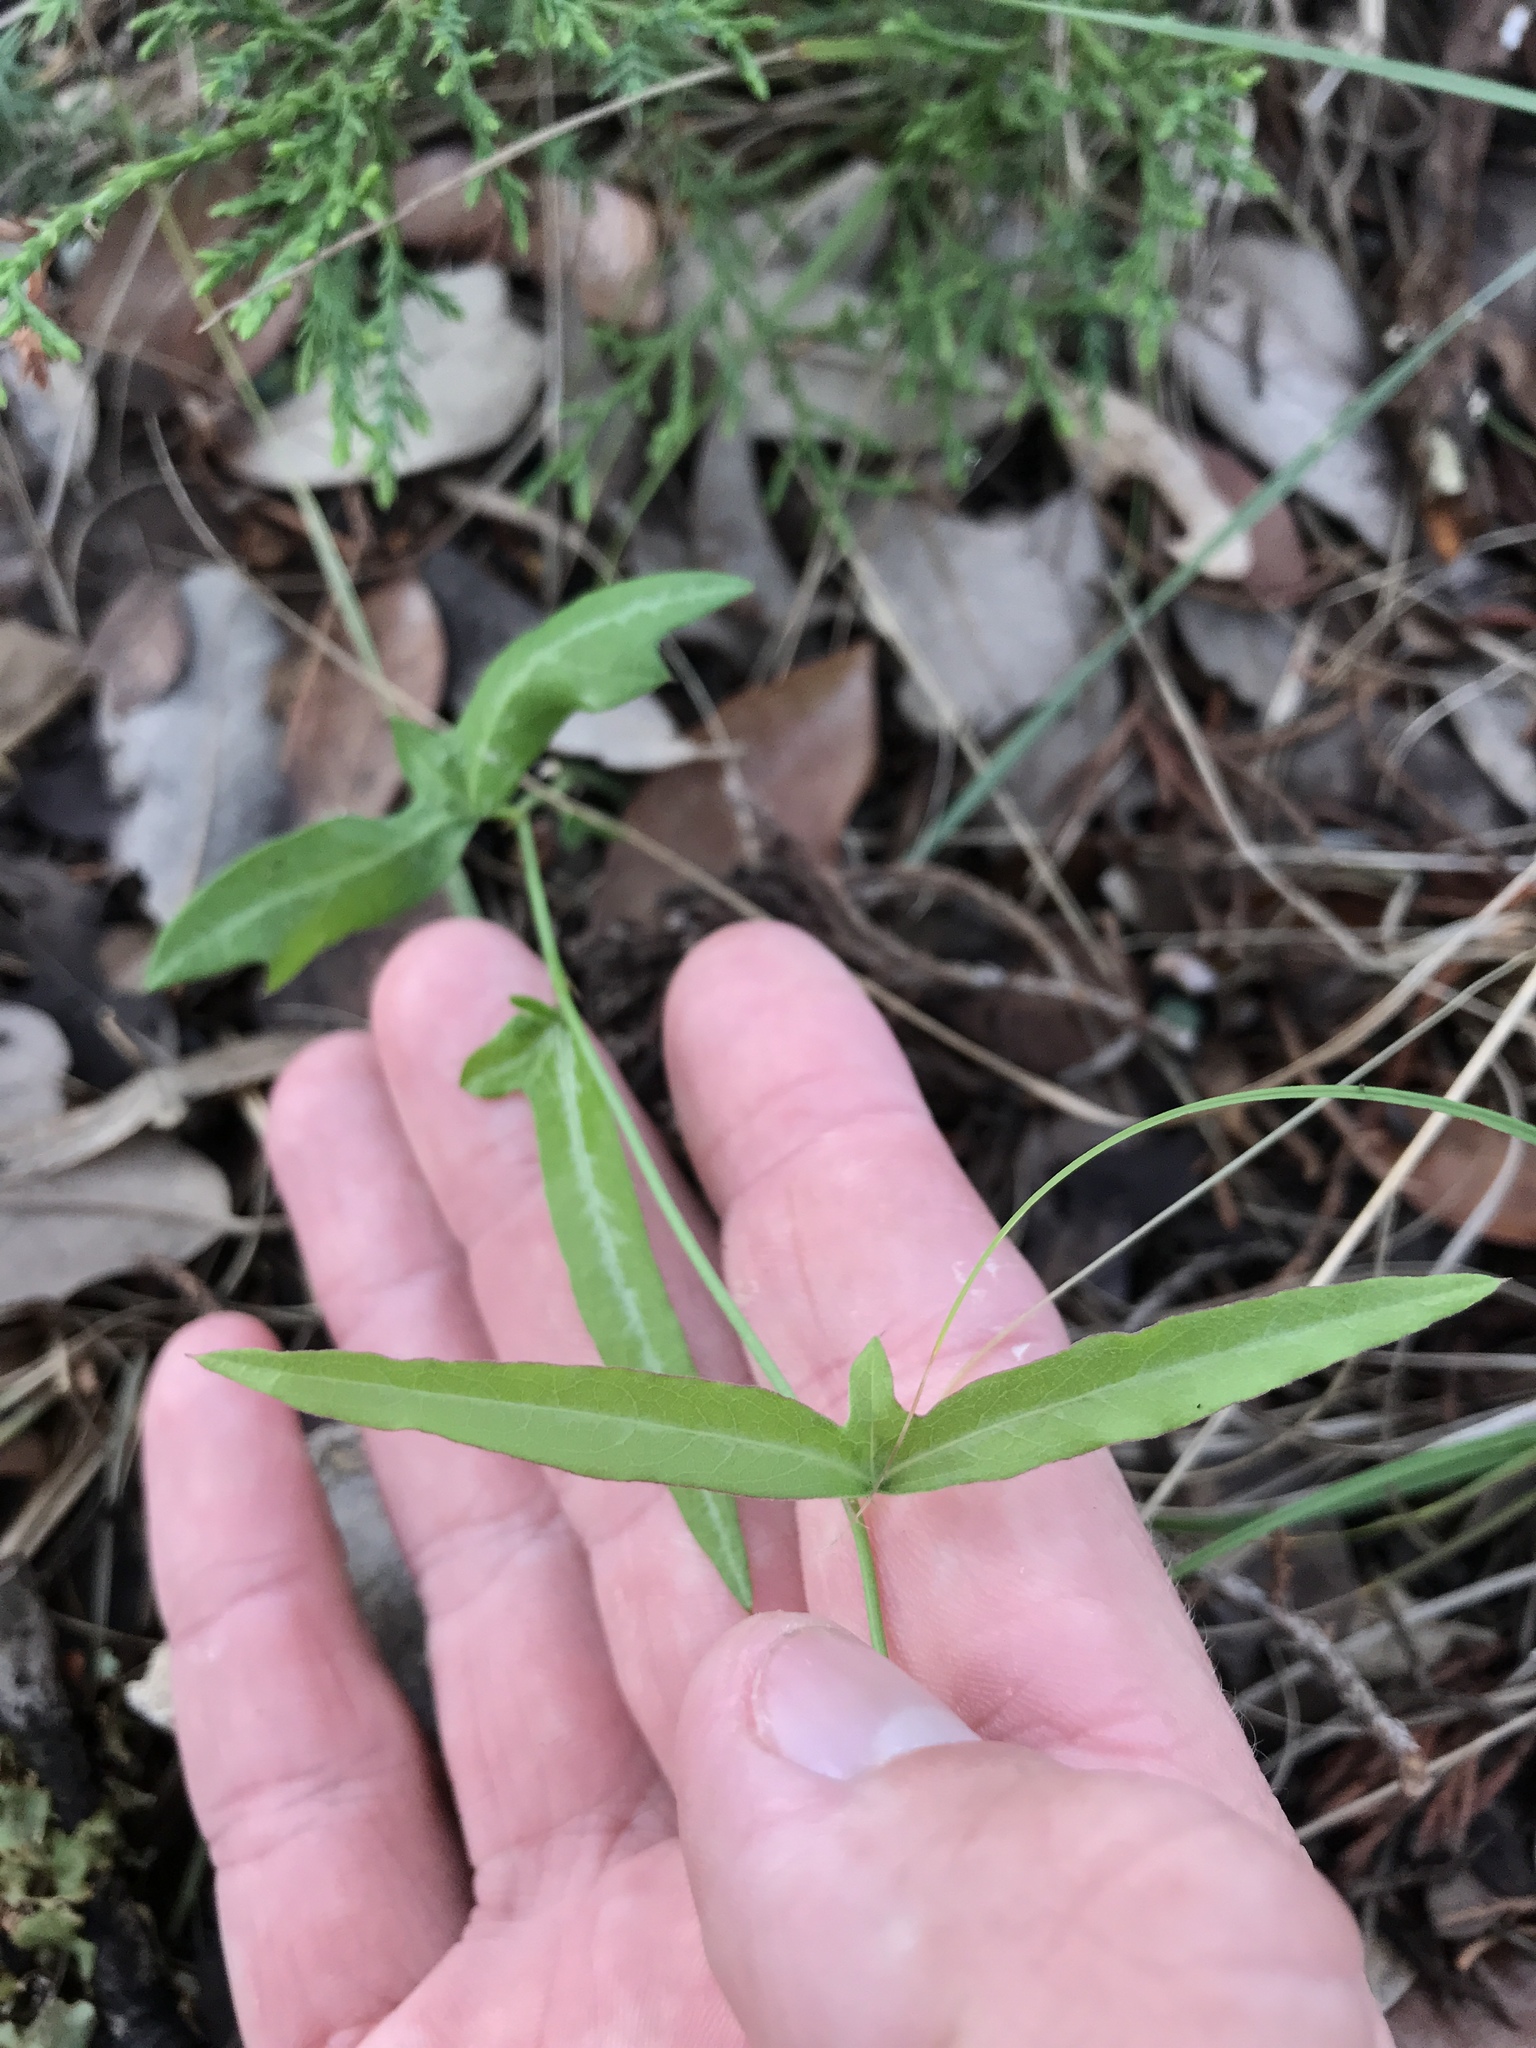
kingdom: Plantae
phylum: Tracheophyta
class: Magnoliopsida
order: Malpighiales
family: Passifloraceae
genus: Passiflora
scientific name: Passiflora tenuiloba
